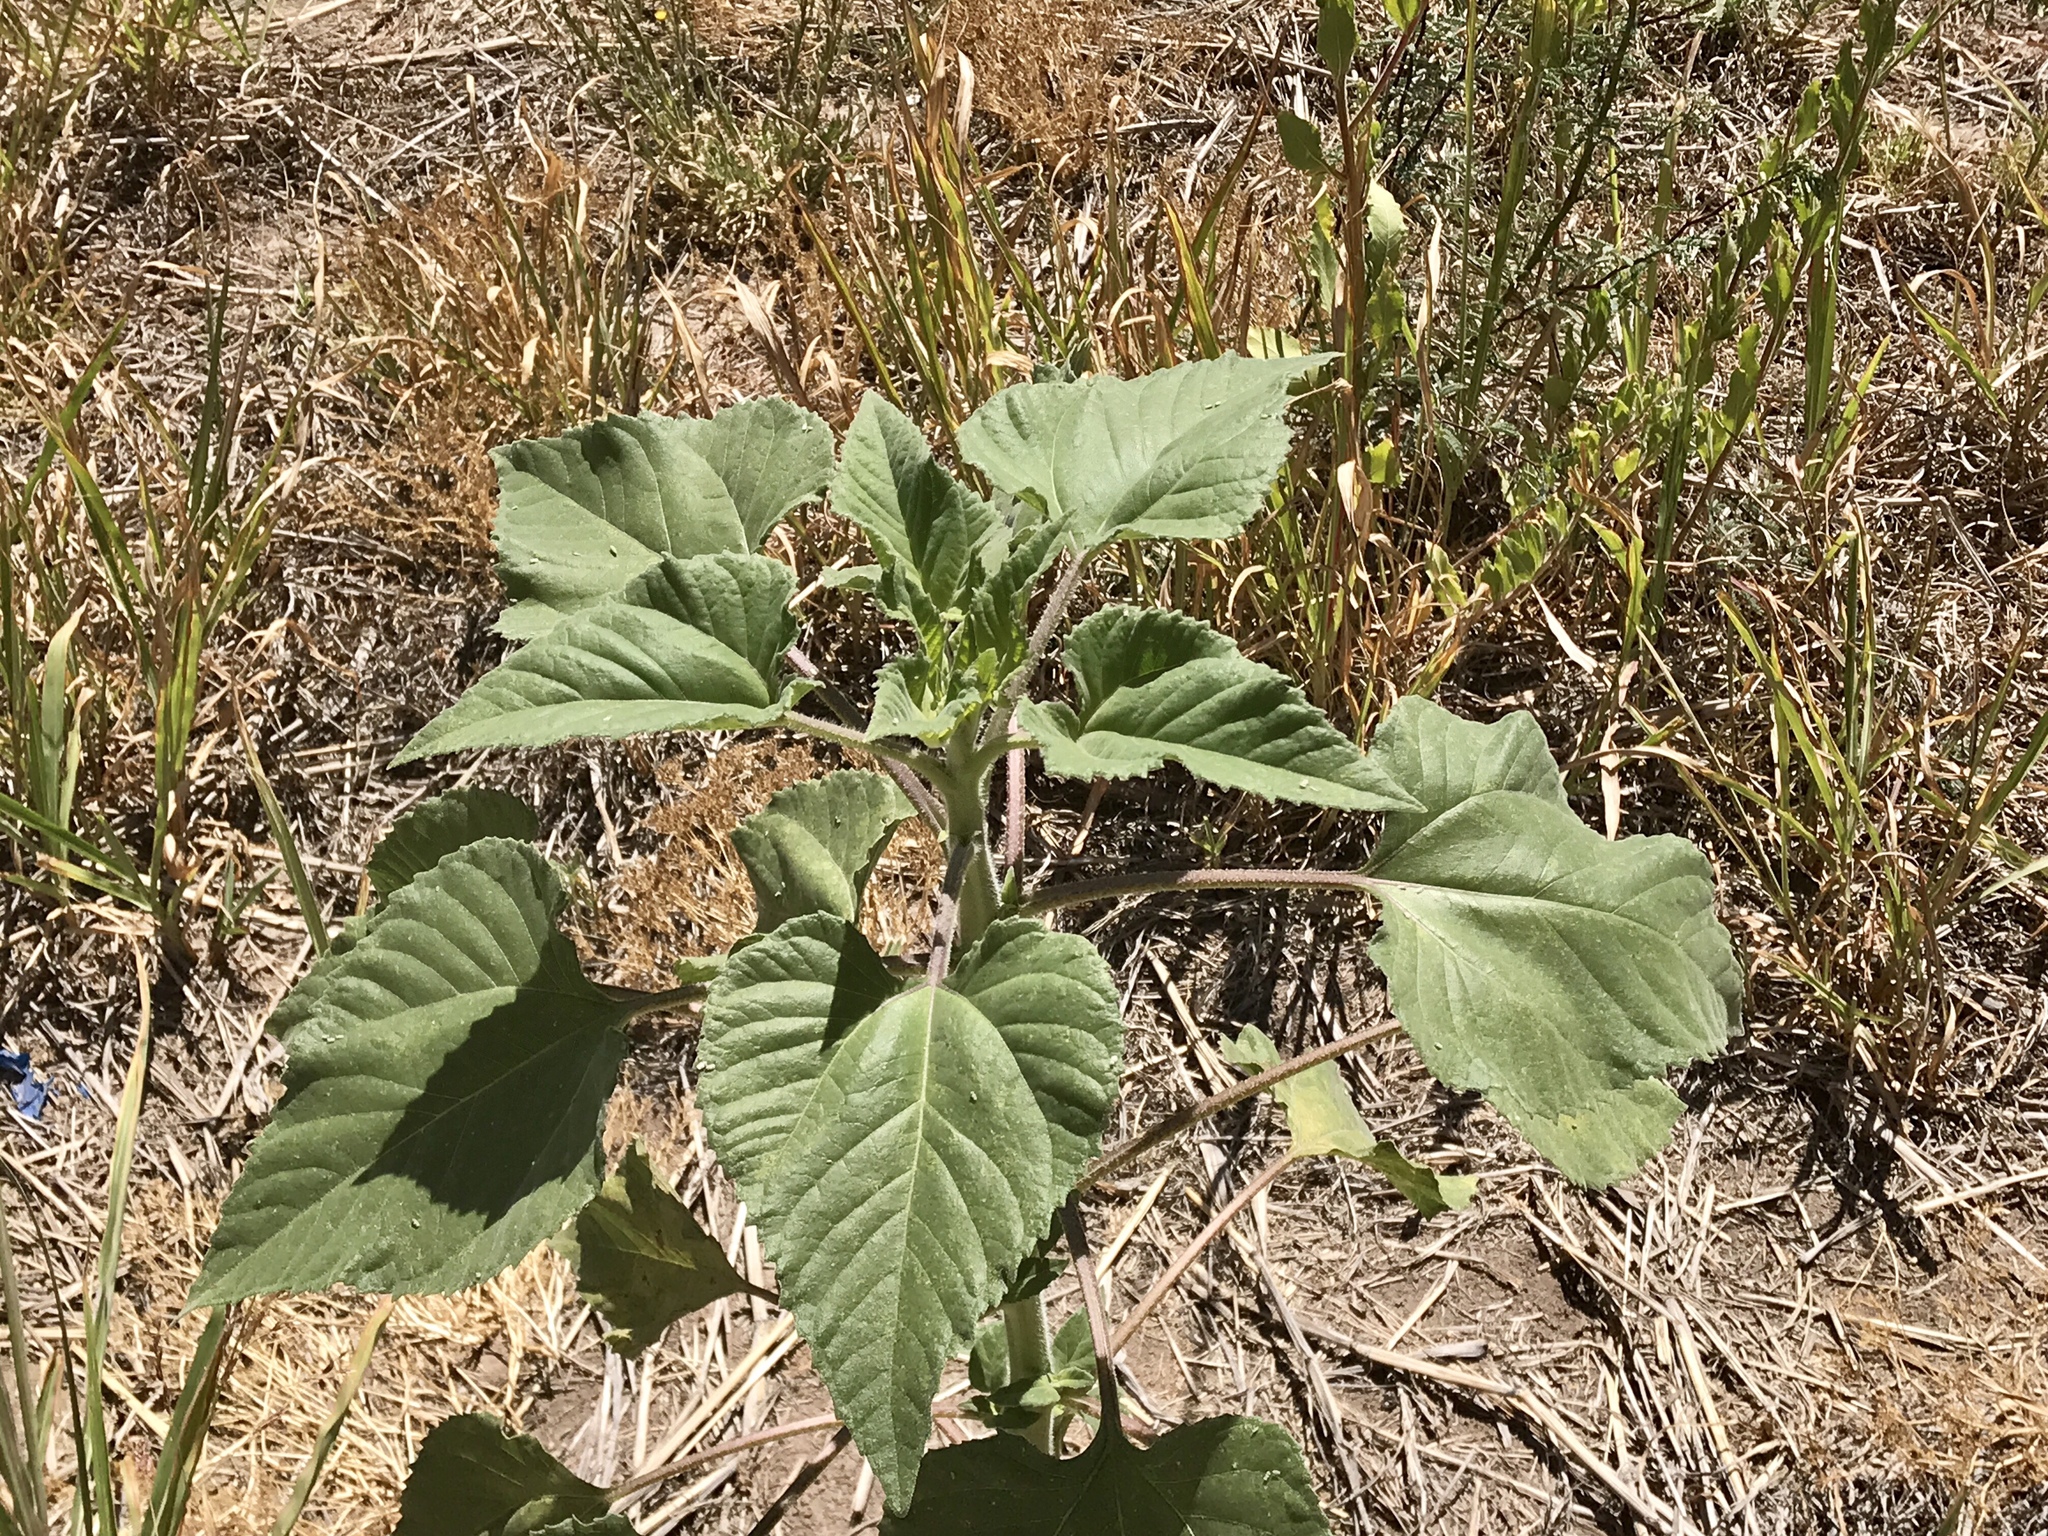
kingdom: Plantae
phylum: Tracheophyta
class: Magnoliopsida
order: Asterales
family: Asteraceae
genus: Helianthus
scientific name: Helianthus annuus
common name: Sunflower
